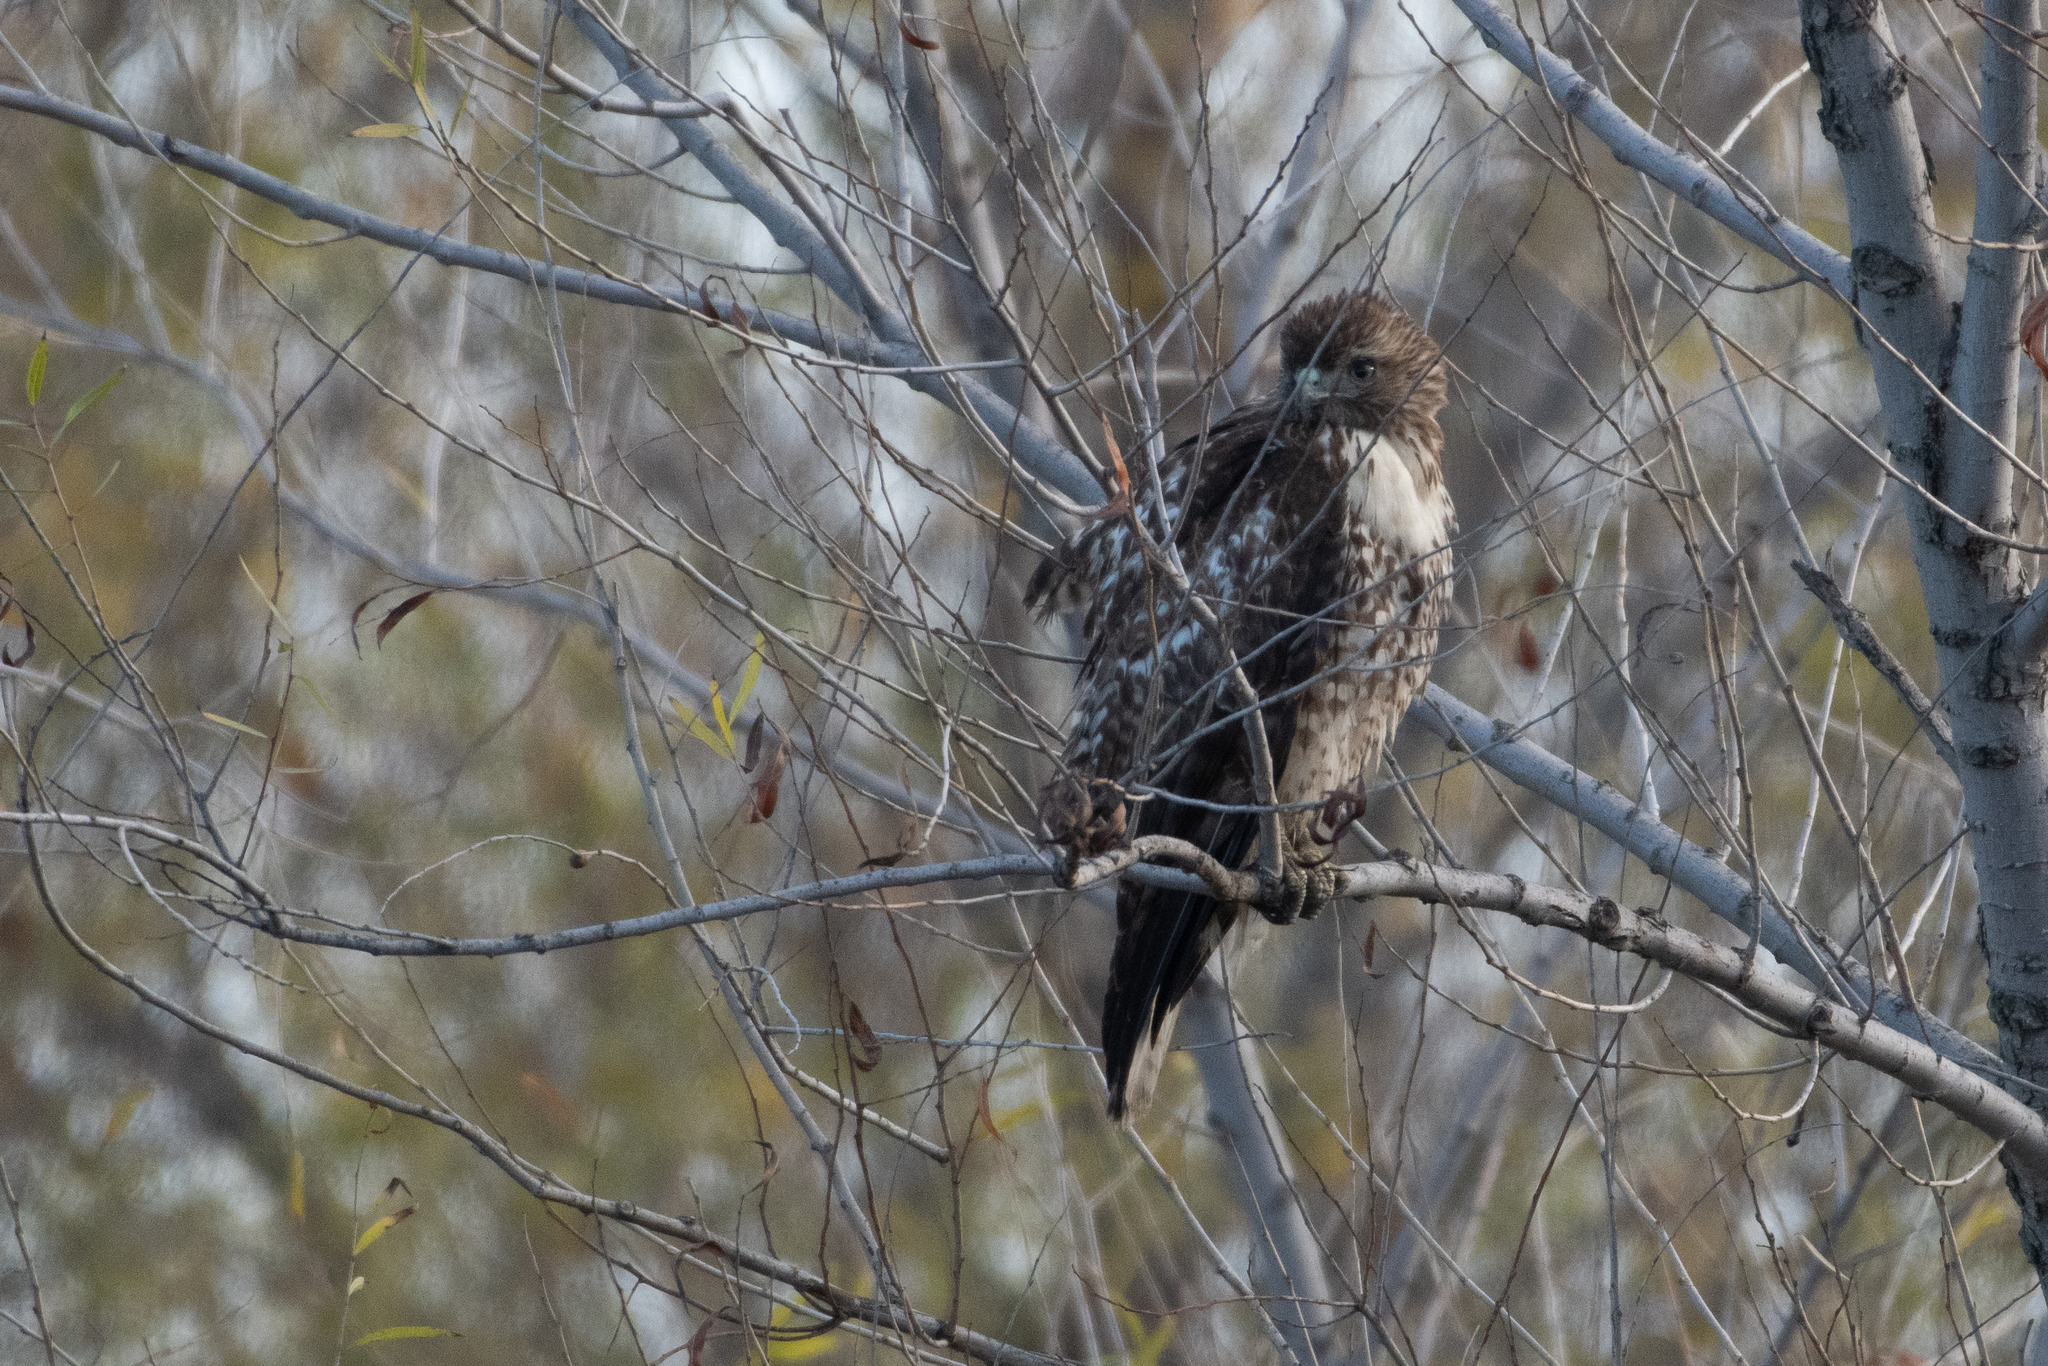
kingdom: Animalia
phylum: Chordata
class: Aves
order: Accipitriformes
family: Accipitridae
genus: Buteo
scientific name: Buteo jamaicensis
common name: Red-tailed hawk
